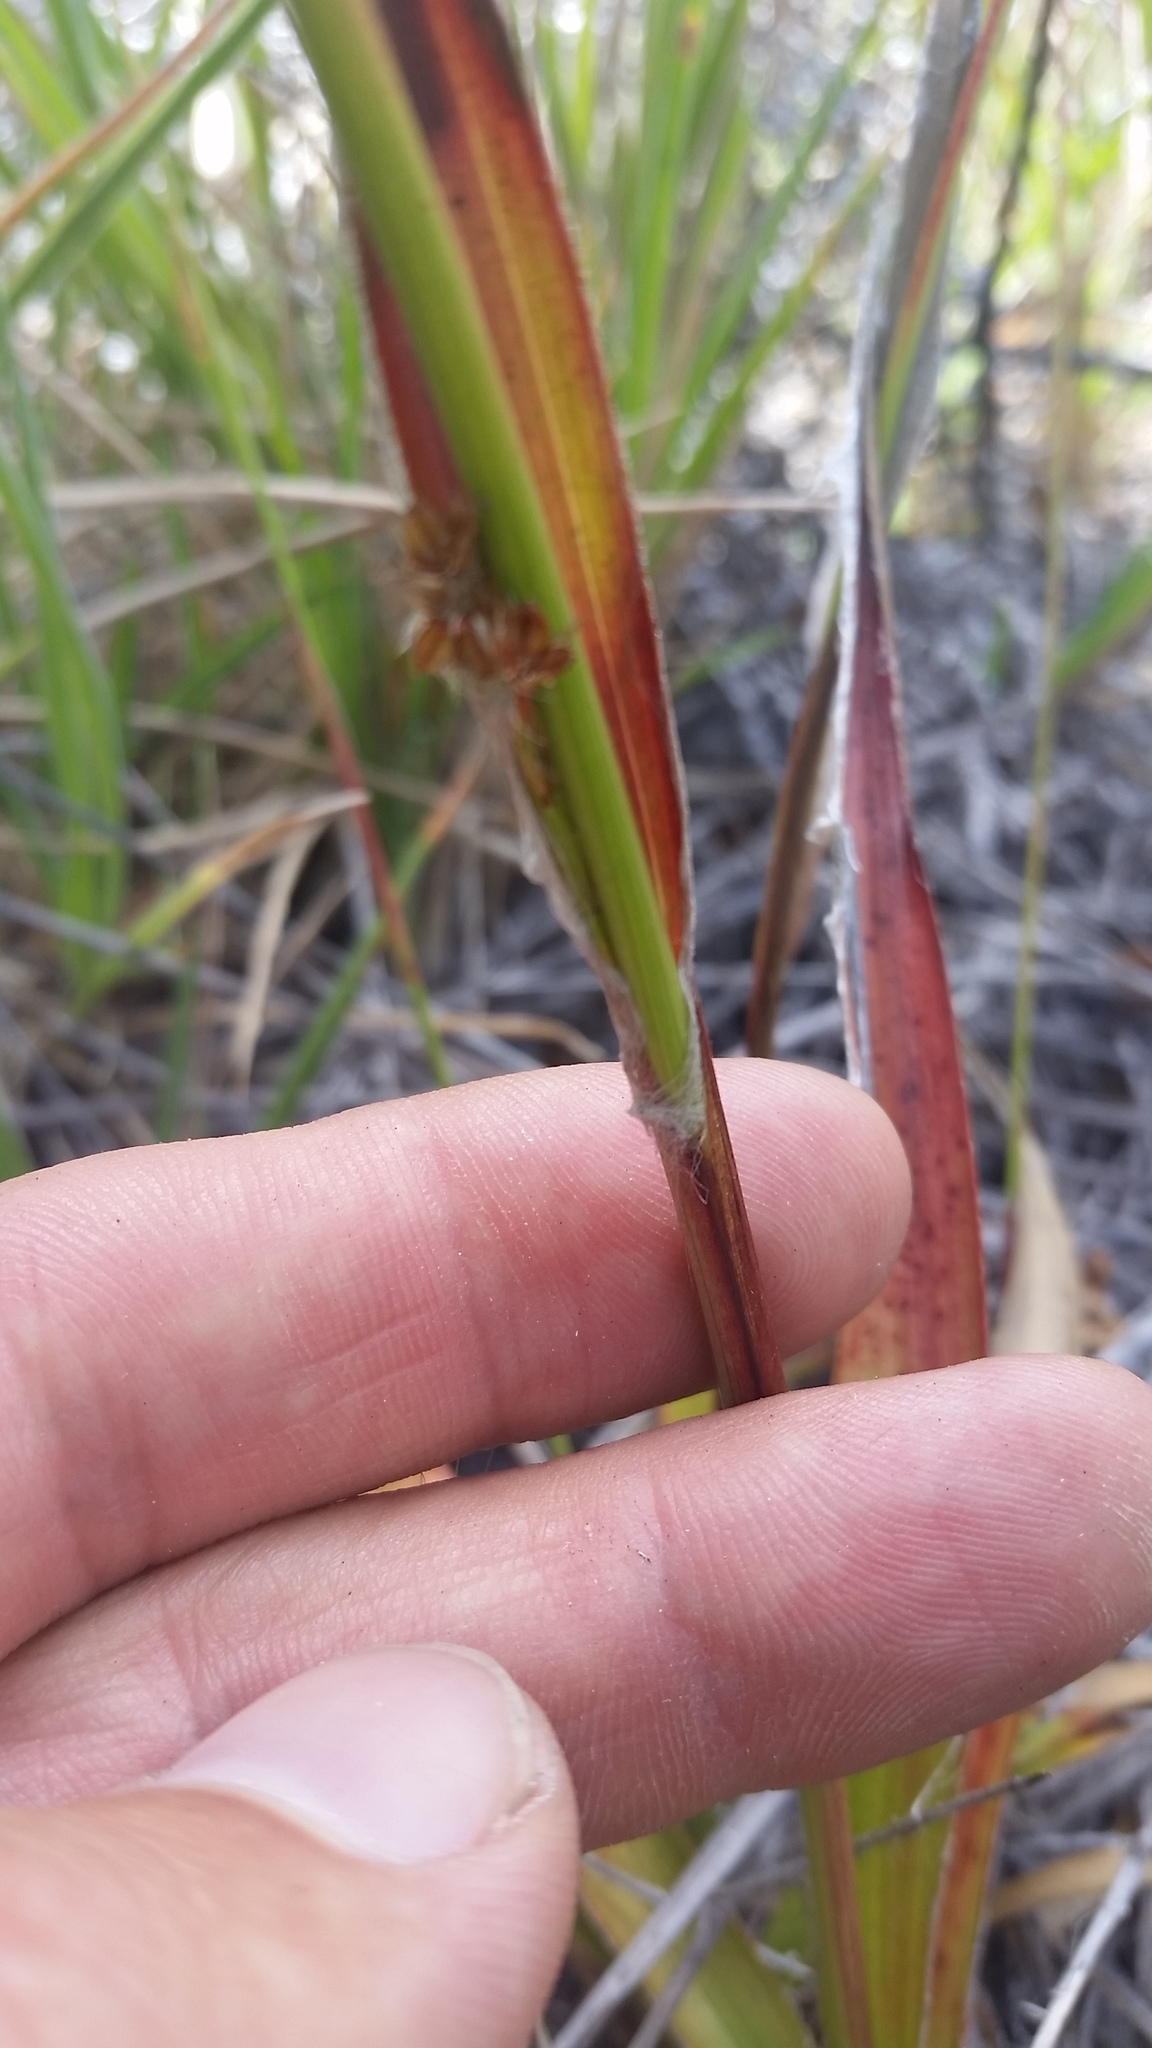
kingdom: Plantae
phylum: Tracheophyta
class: Liliopsida
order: Poales
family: Juncaceae
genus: Luzula
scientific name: Luzula hawaiiensis
